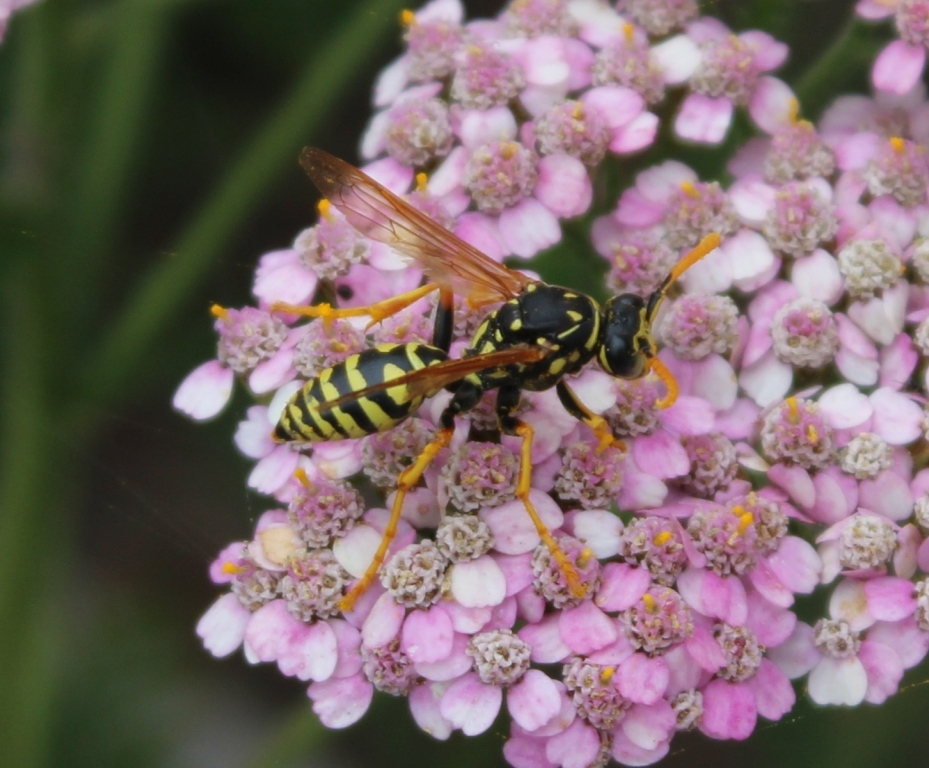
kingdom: Animalia
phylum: Arthropoda
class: Insecta
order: Hymenoptera
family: Eumenidae
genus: Polistes
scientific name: Polistes dominula
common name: Paper wasp
